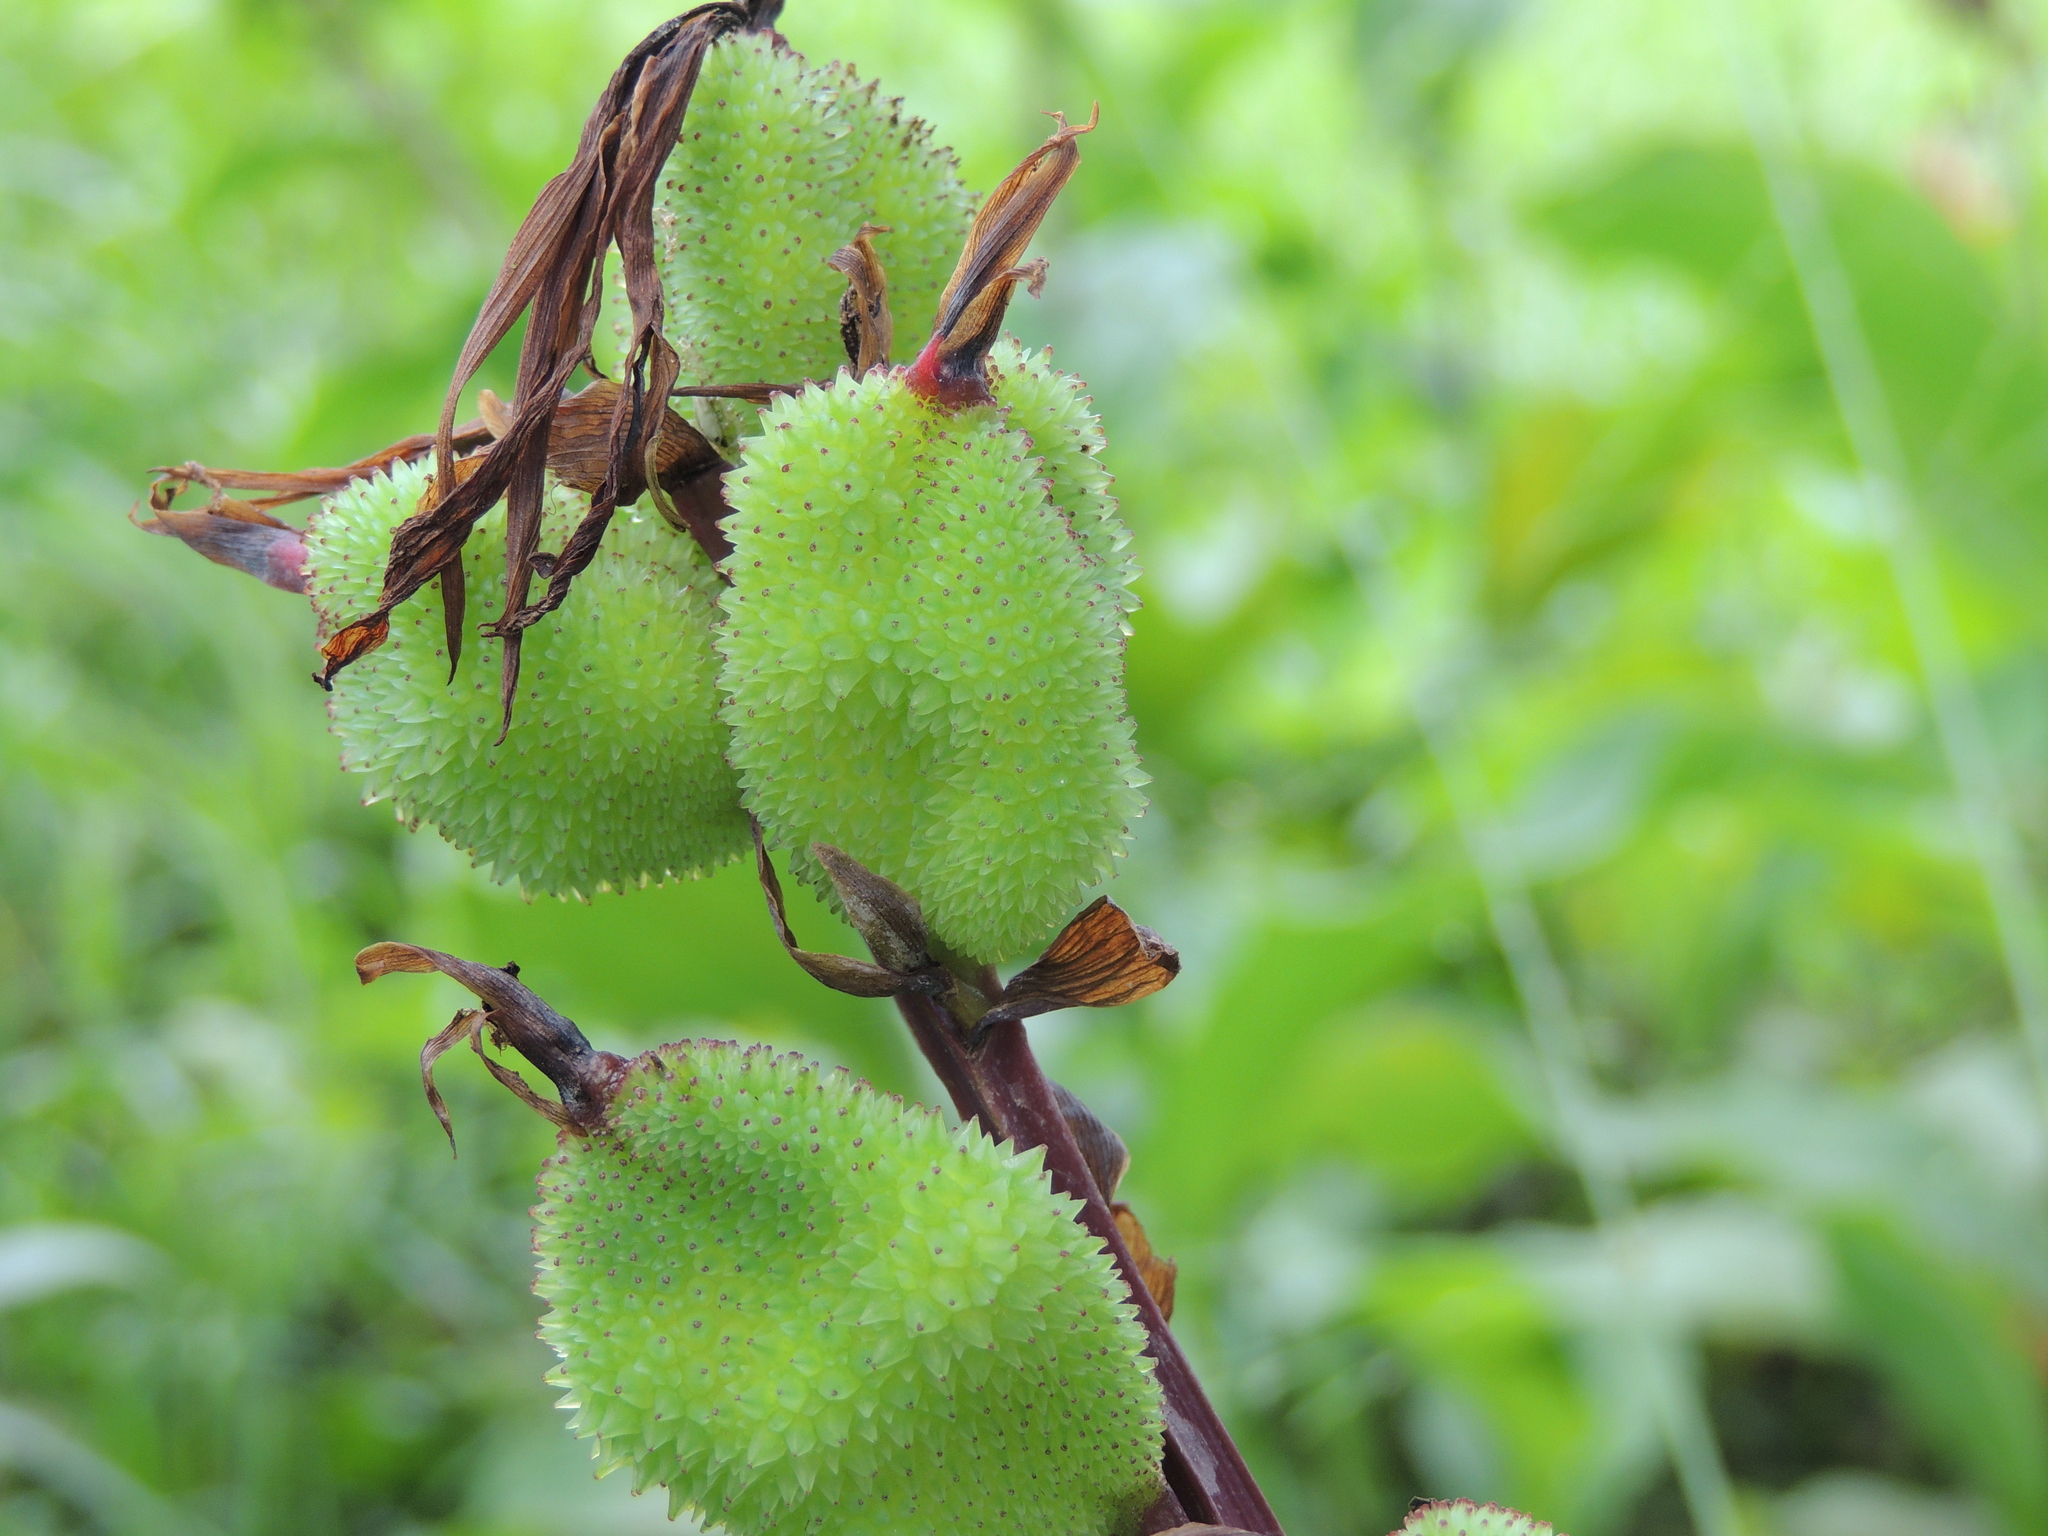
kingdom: Plantae
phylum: Tracheophyta
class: Liliopsida
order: Zingiberales
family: Cannaceae
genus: Canna
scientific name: Canna indica
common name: Indian shot
